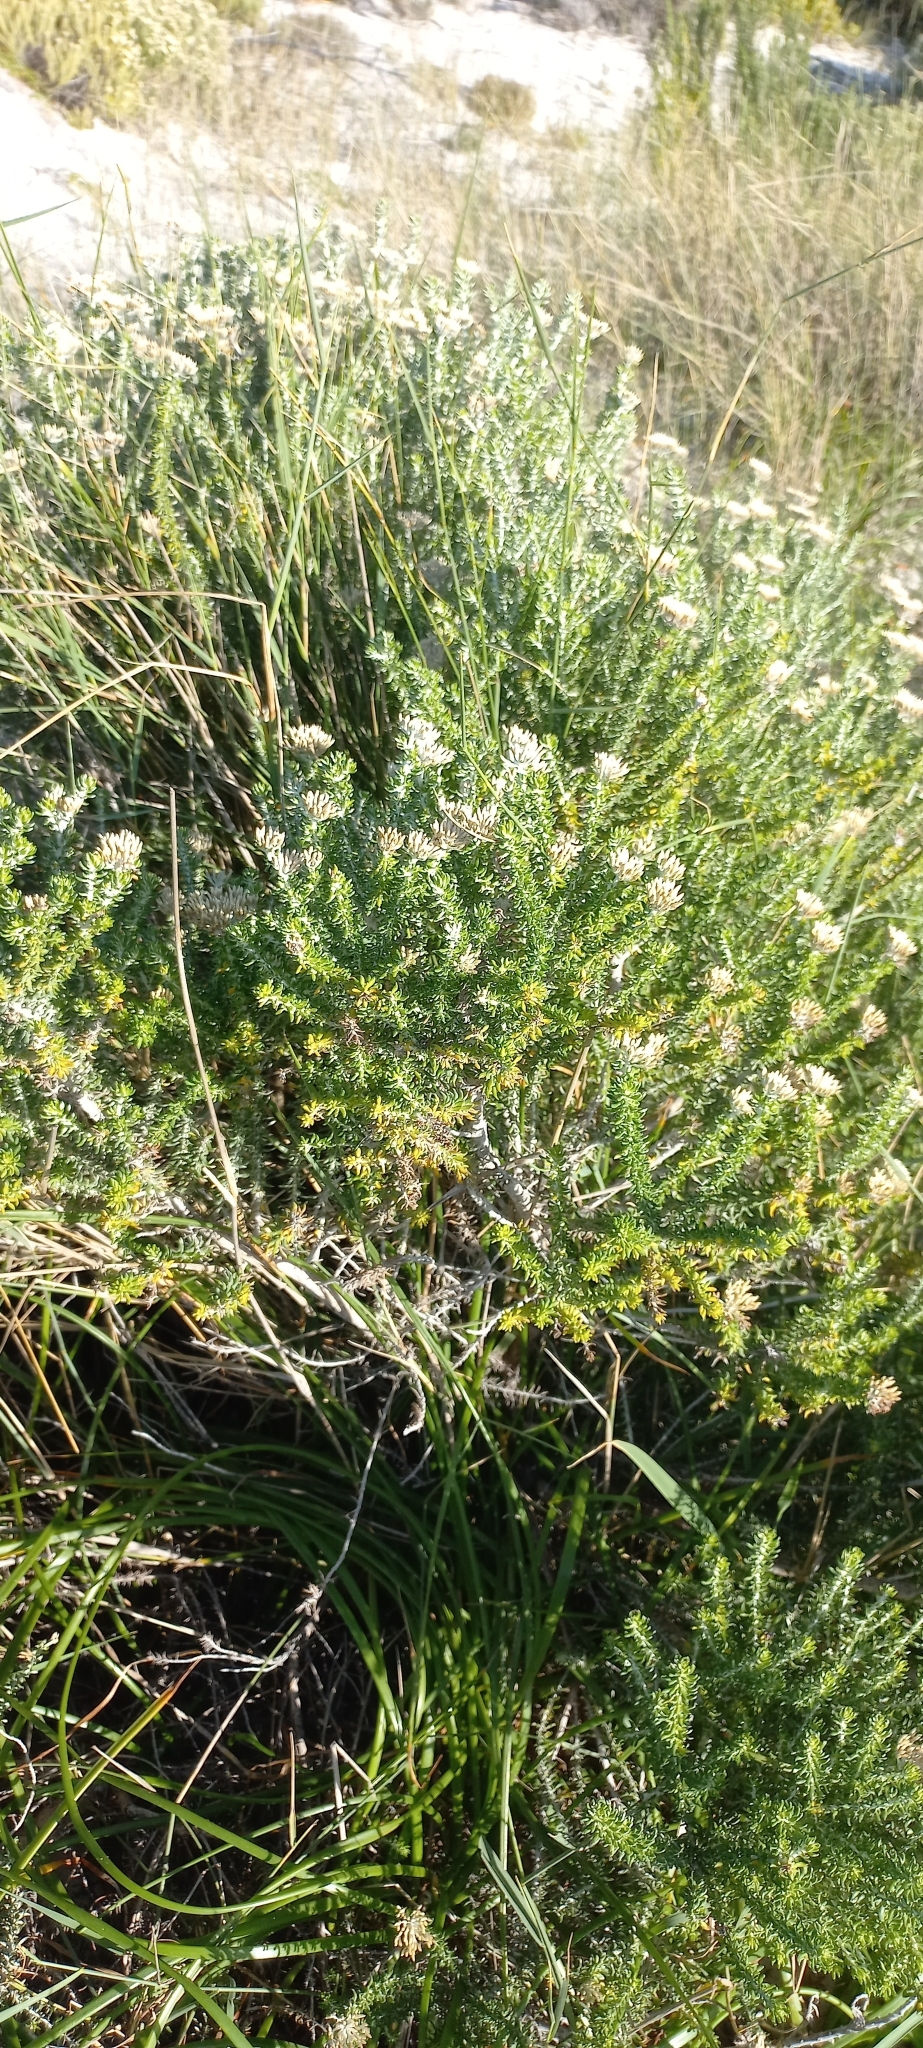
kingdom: Plantae
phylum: Tracheophyta
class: Magnoliopsida
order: Asterales
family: Asteraceae
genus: Metalasia
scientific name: Metalasia muricata
